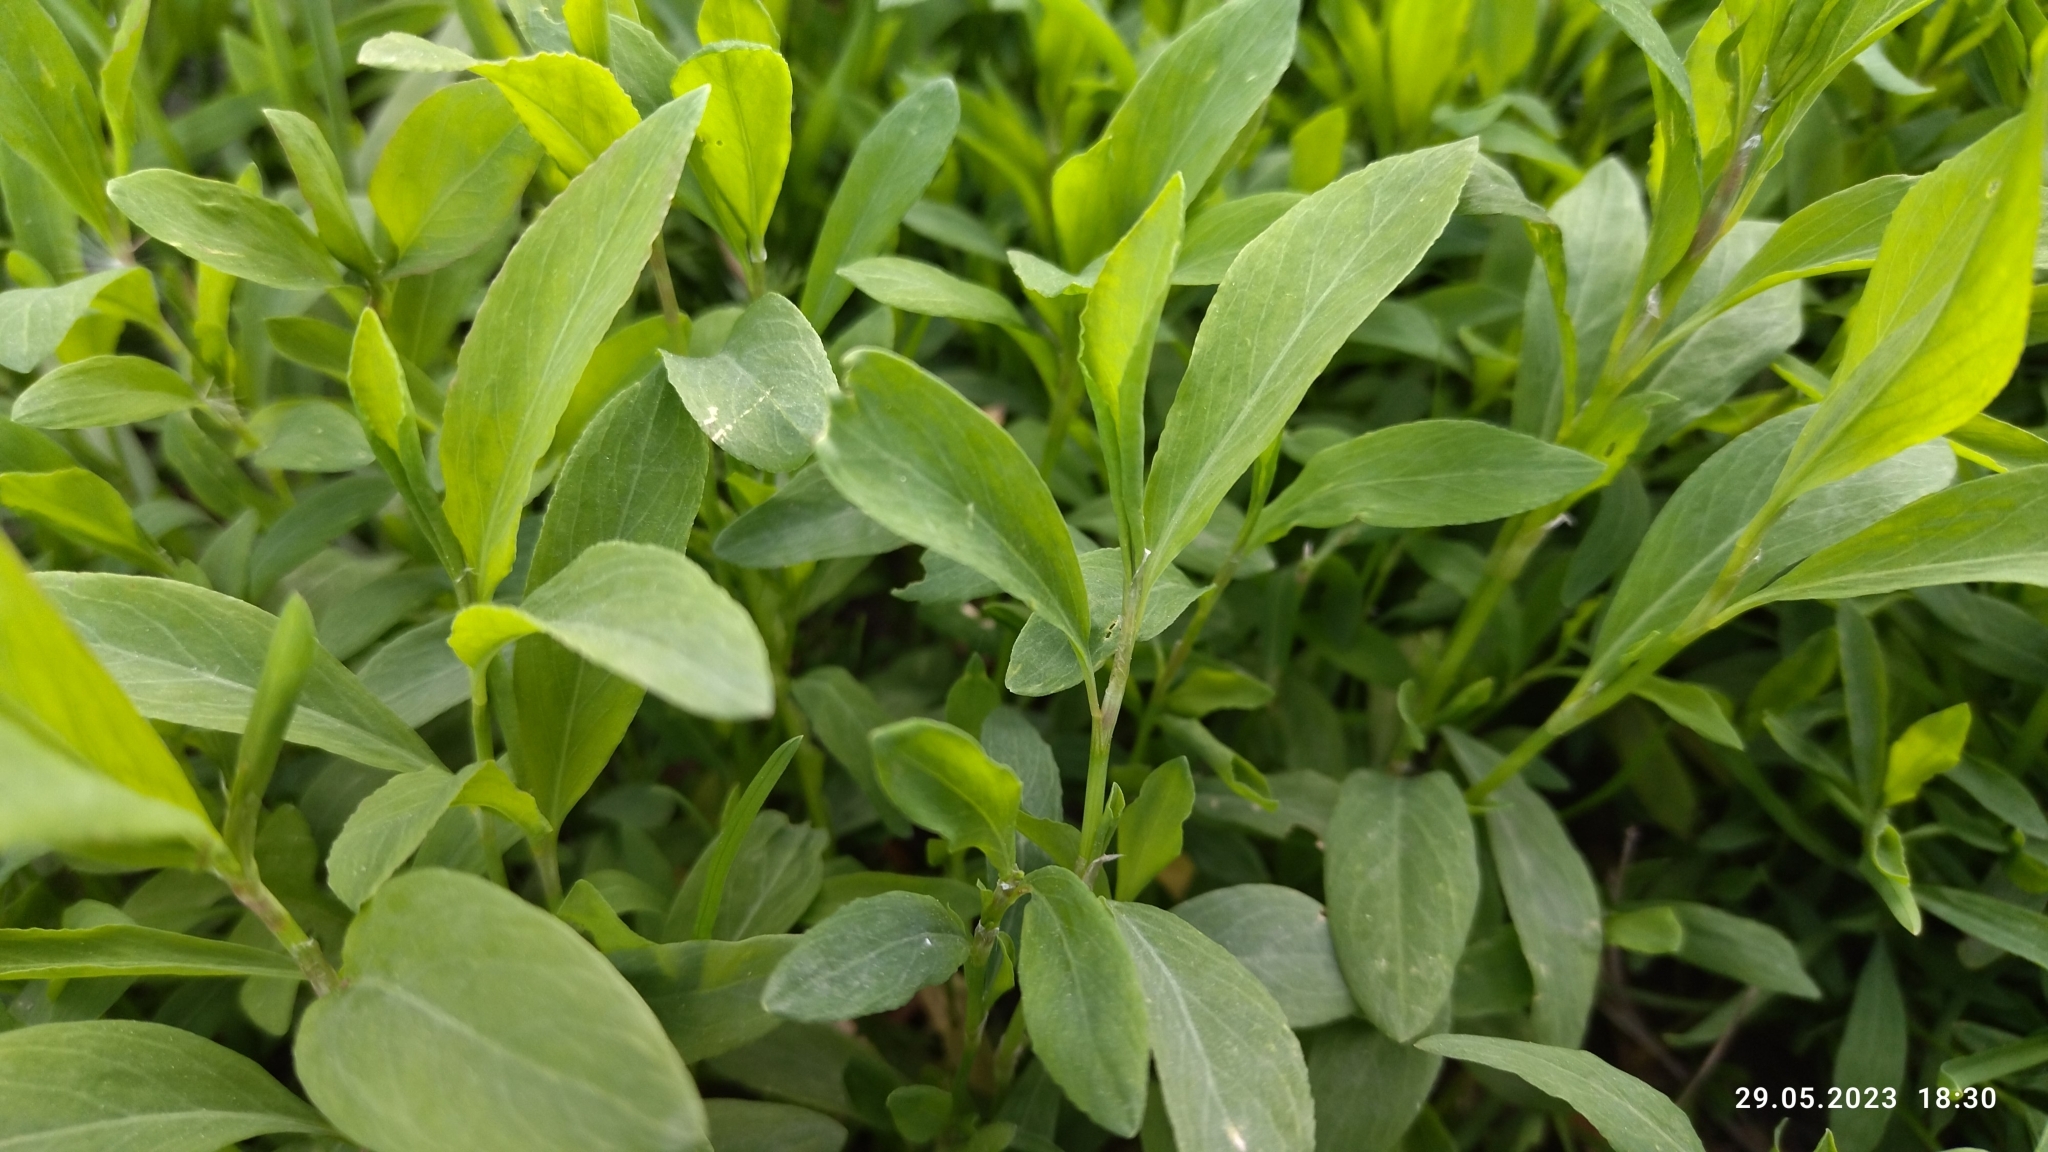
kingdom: Plantae
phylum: Tracheophyta
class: Magnoliopsida
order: Caryophyllales
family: Polygonaceae
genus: Polygonum
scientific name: Polygonum
